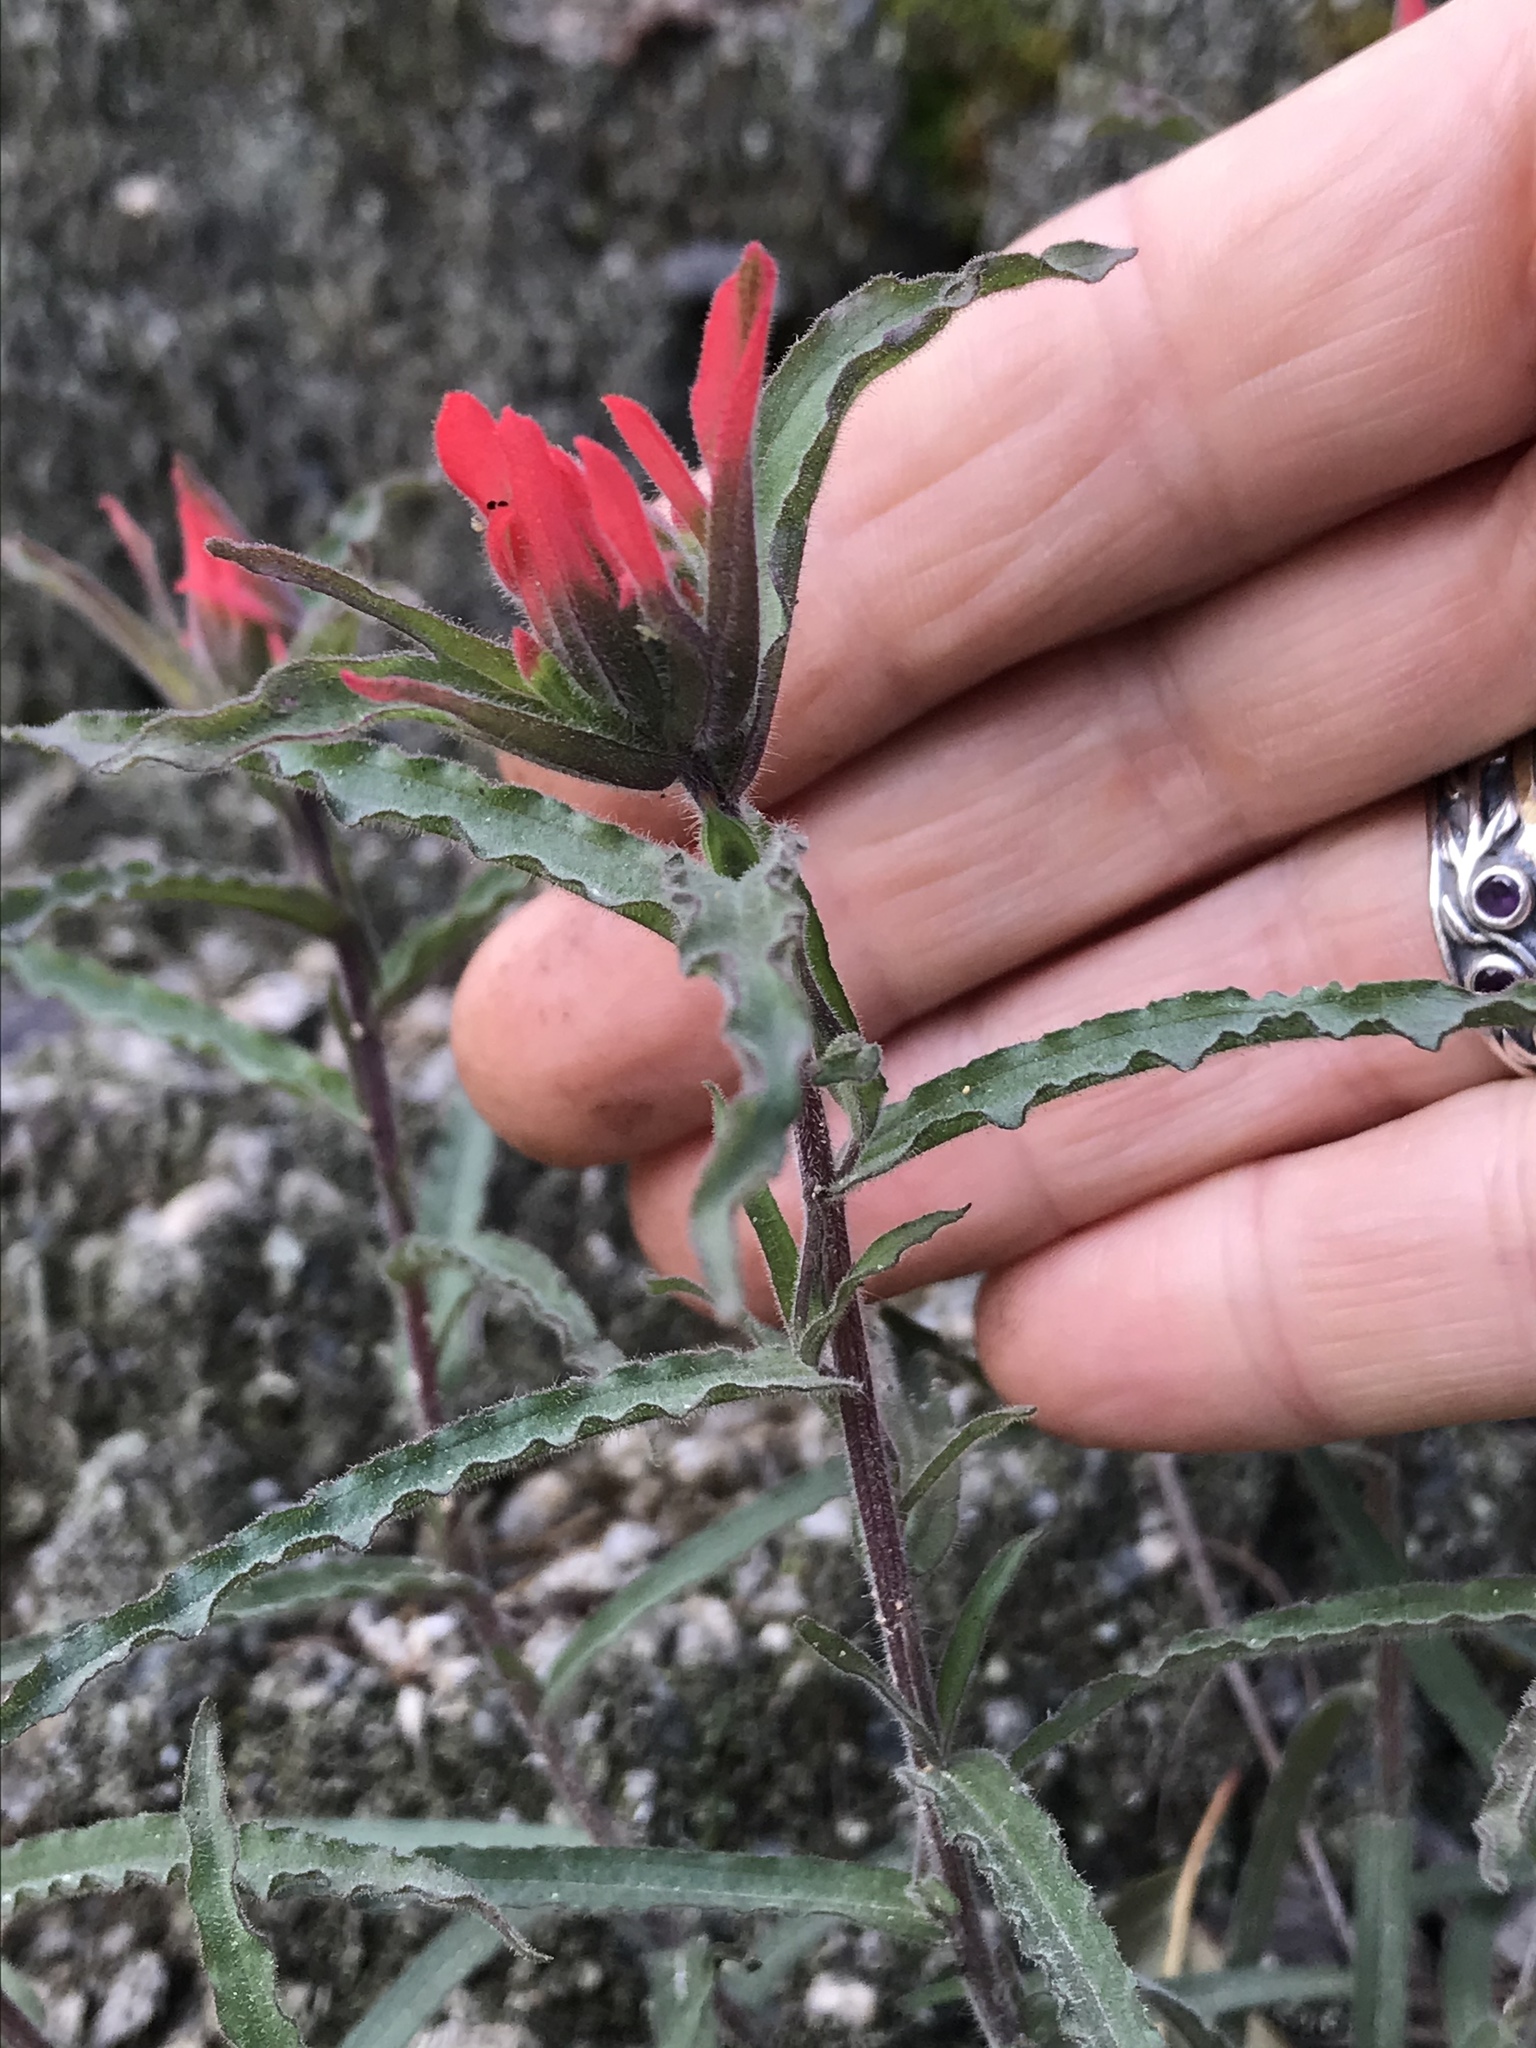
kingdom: Plantae
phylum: Tracheophyta
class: Magnoliopsida
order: Lamiales
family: Orobanchaceae
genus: Castilleja
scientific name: Castilleja martini
